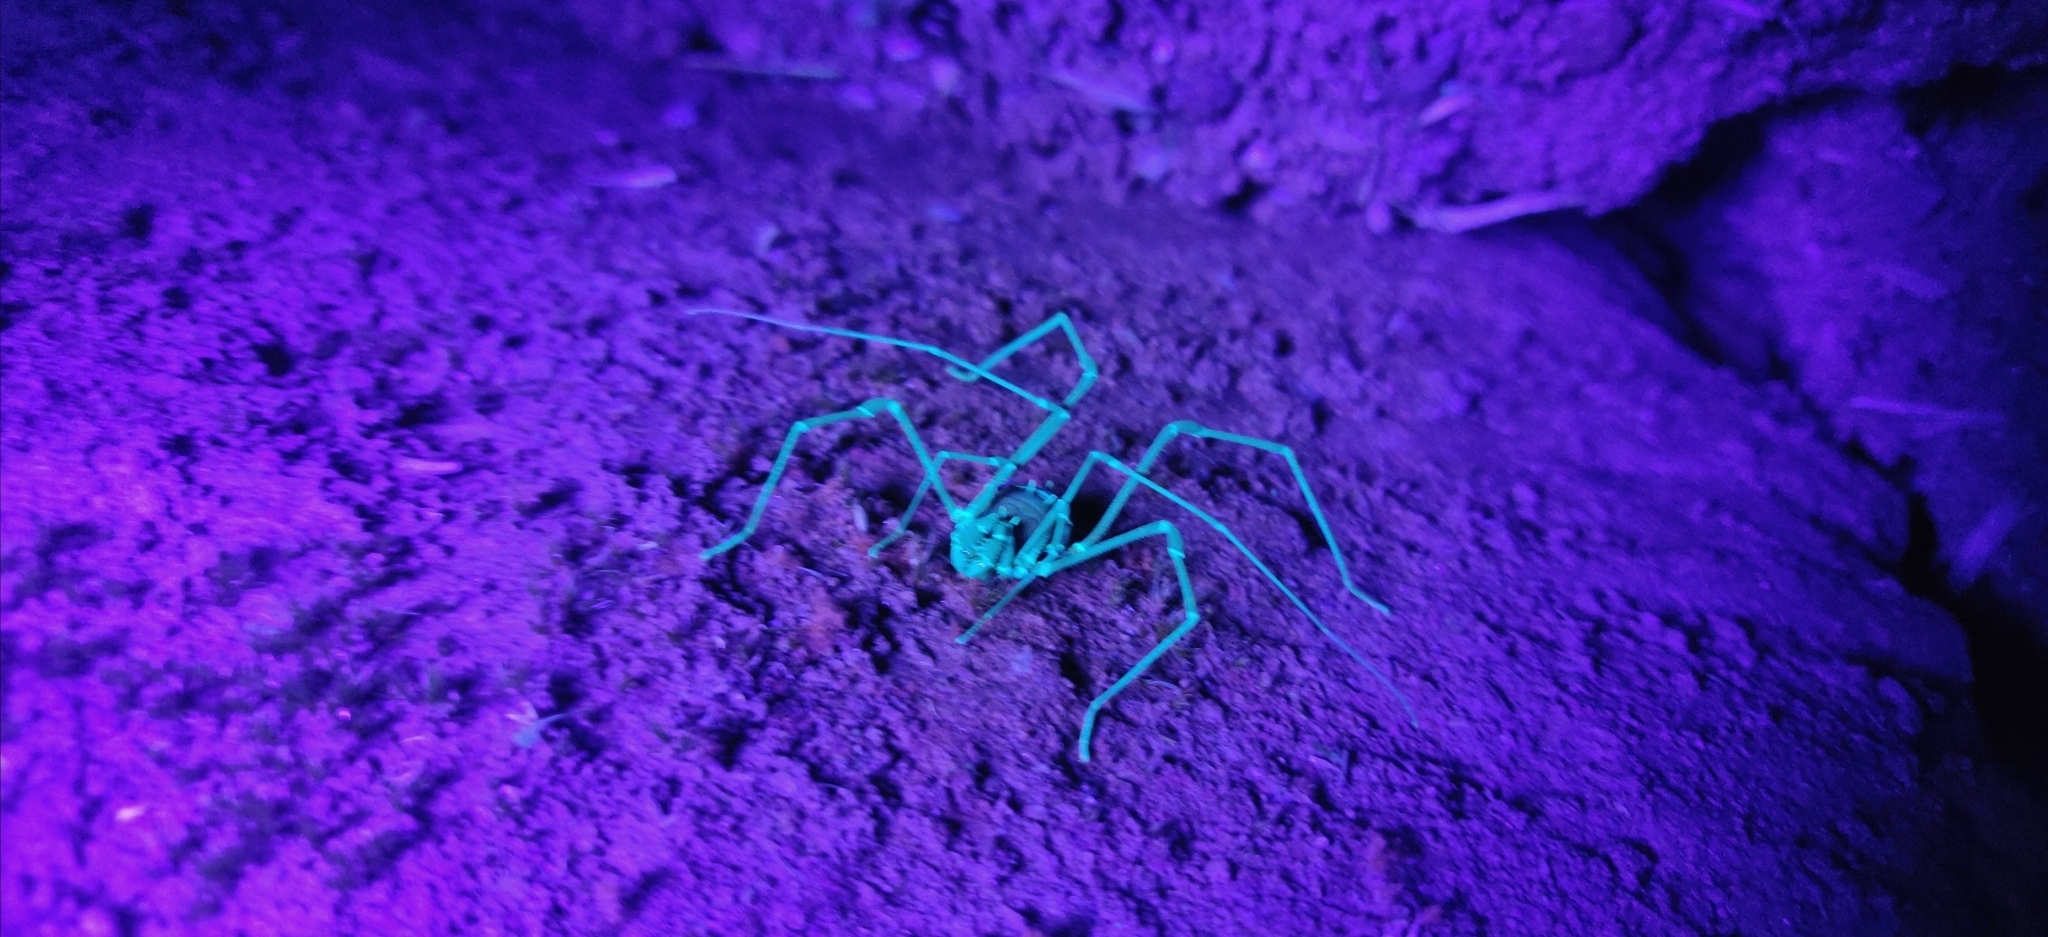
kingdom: Animalia
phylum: Arthropoda
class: Arachnida
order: Opiliones
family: Cranaidae
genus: Phareicranaus
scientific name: Phareicranaus calcariferus
